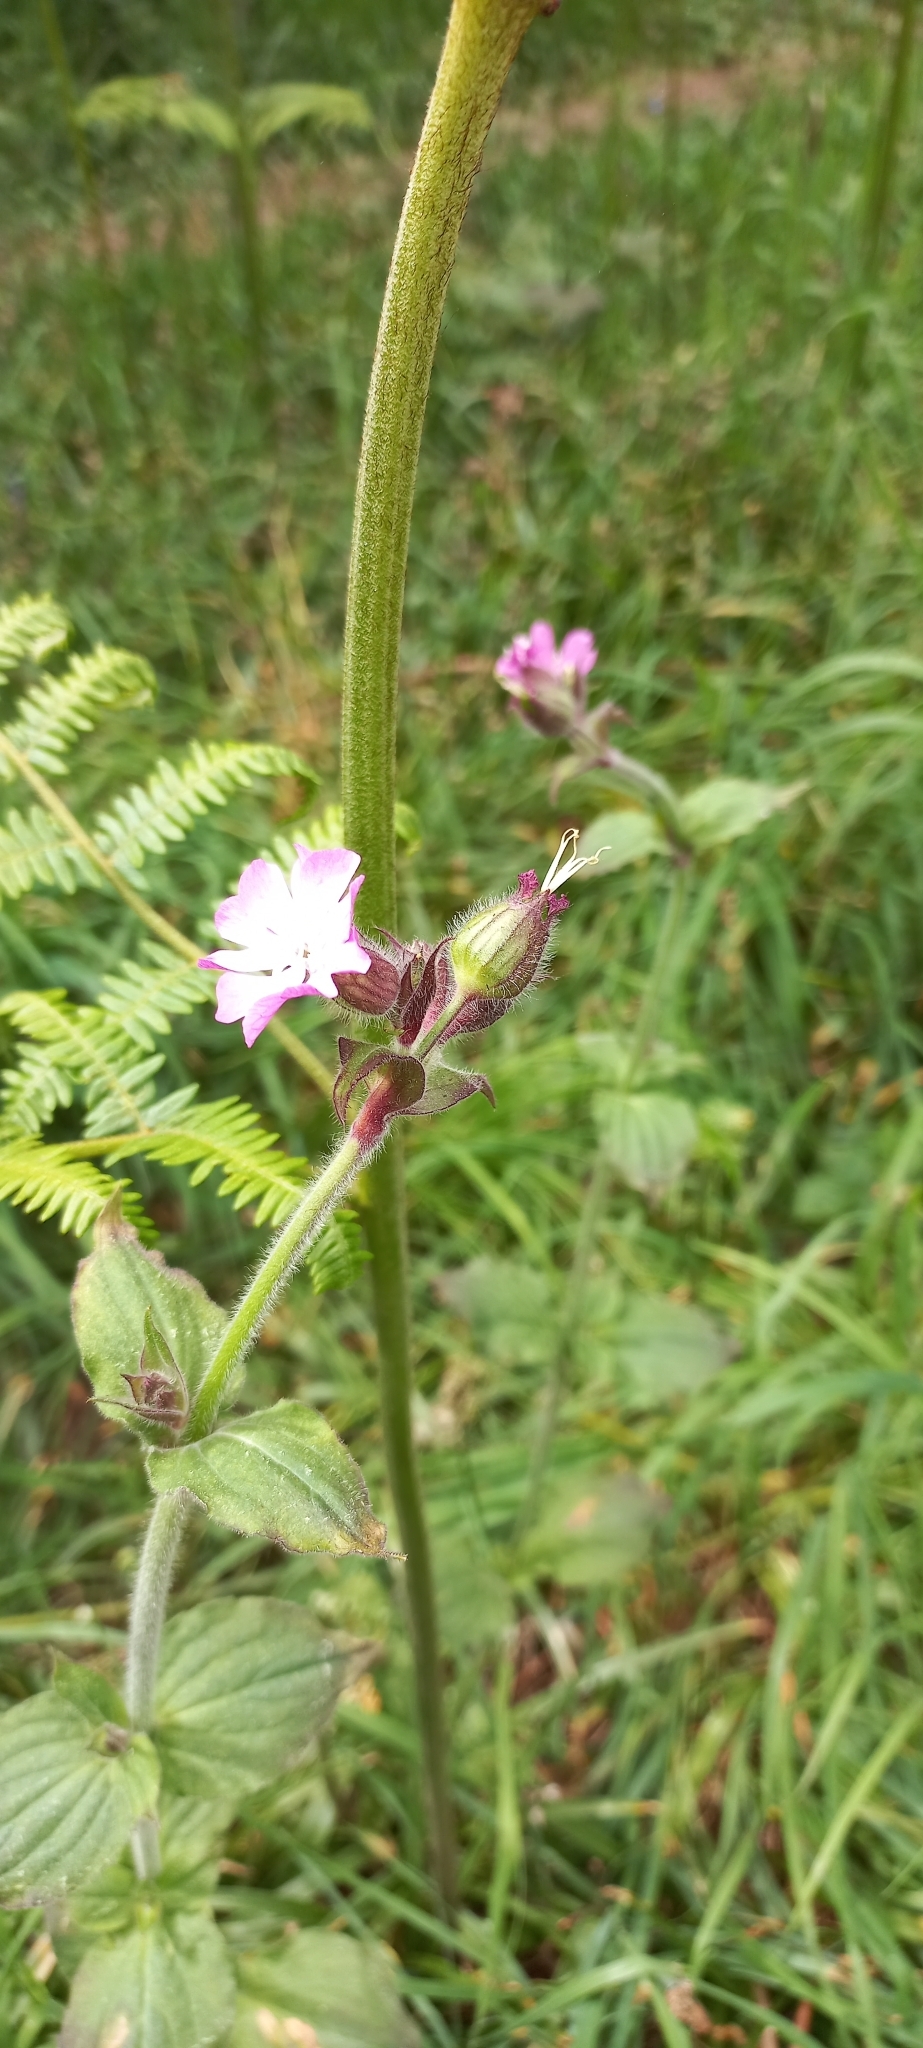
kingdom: Plantae
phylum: Tracheophyta
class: Magnoliopsida
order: Caryophyllales
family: Caryophyllaceae
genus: Silene
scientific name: Silene dioica
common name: Red campion
